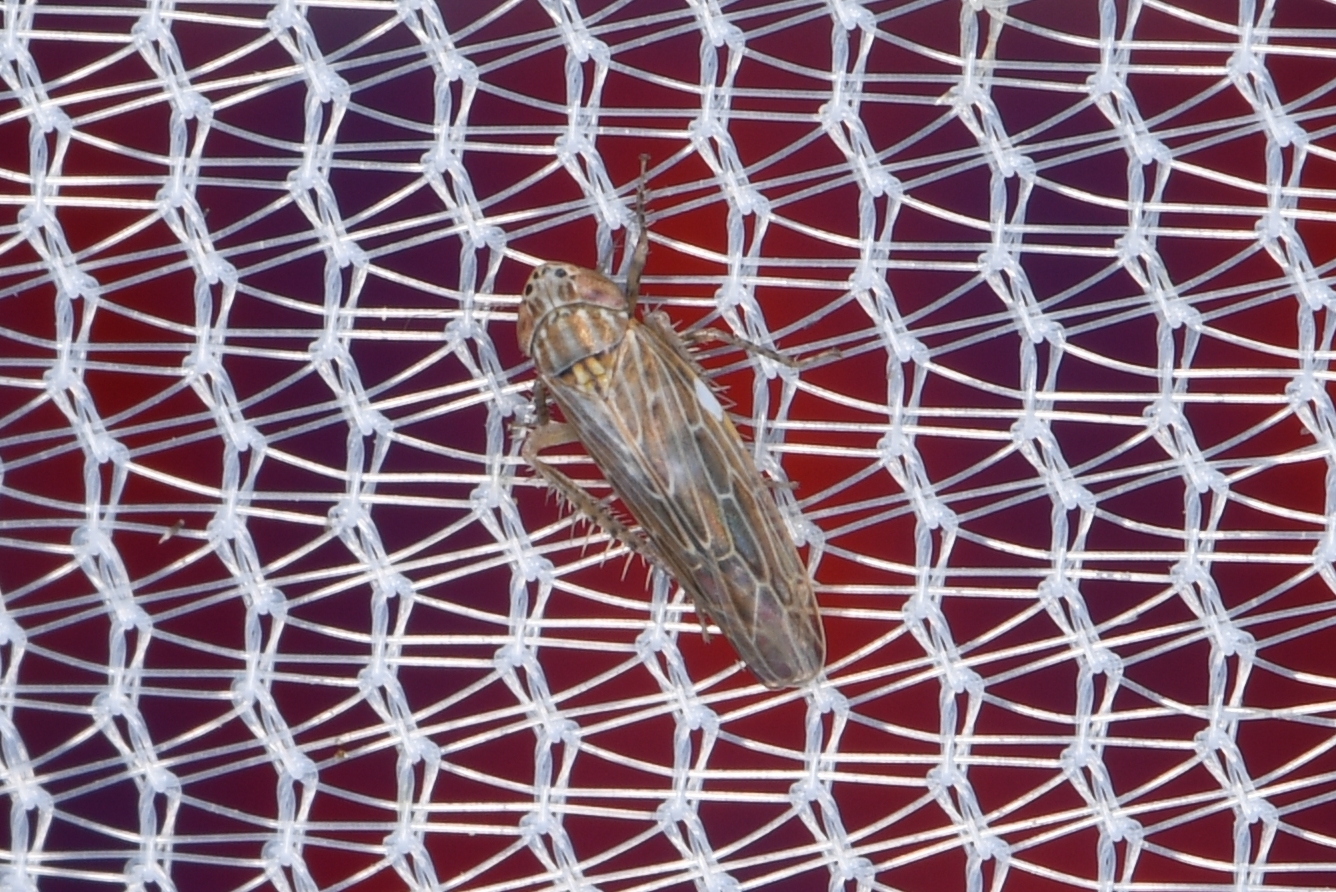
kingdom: Animalia
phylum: Arthropoda
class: Insecta
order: Hemiptera
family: Cicadellidae
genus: Graminella
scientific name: Graminella sonora
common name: Lesser lawn leafhopper
